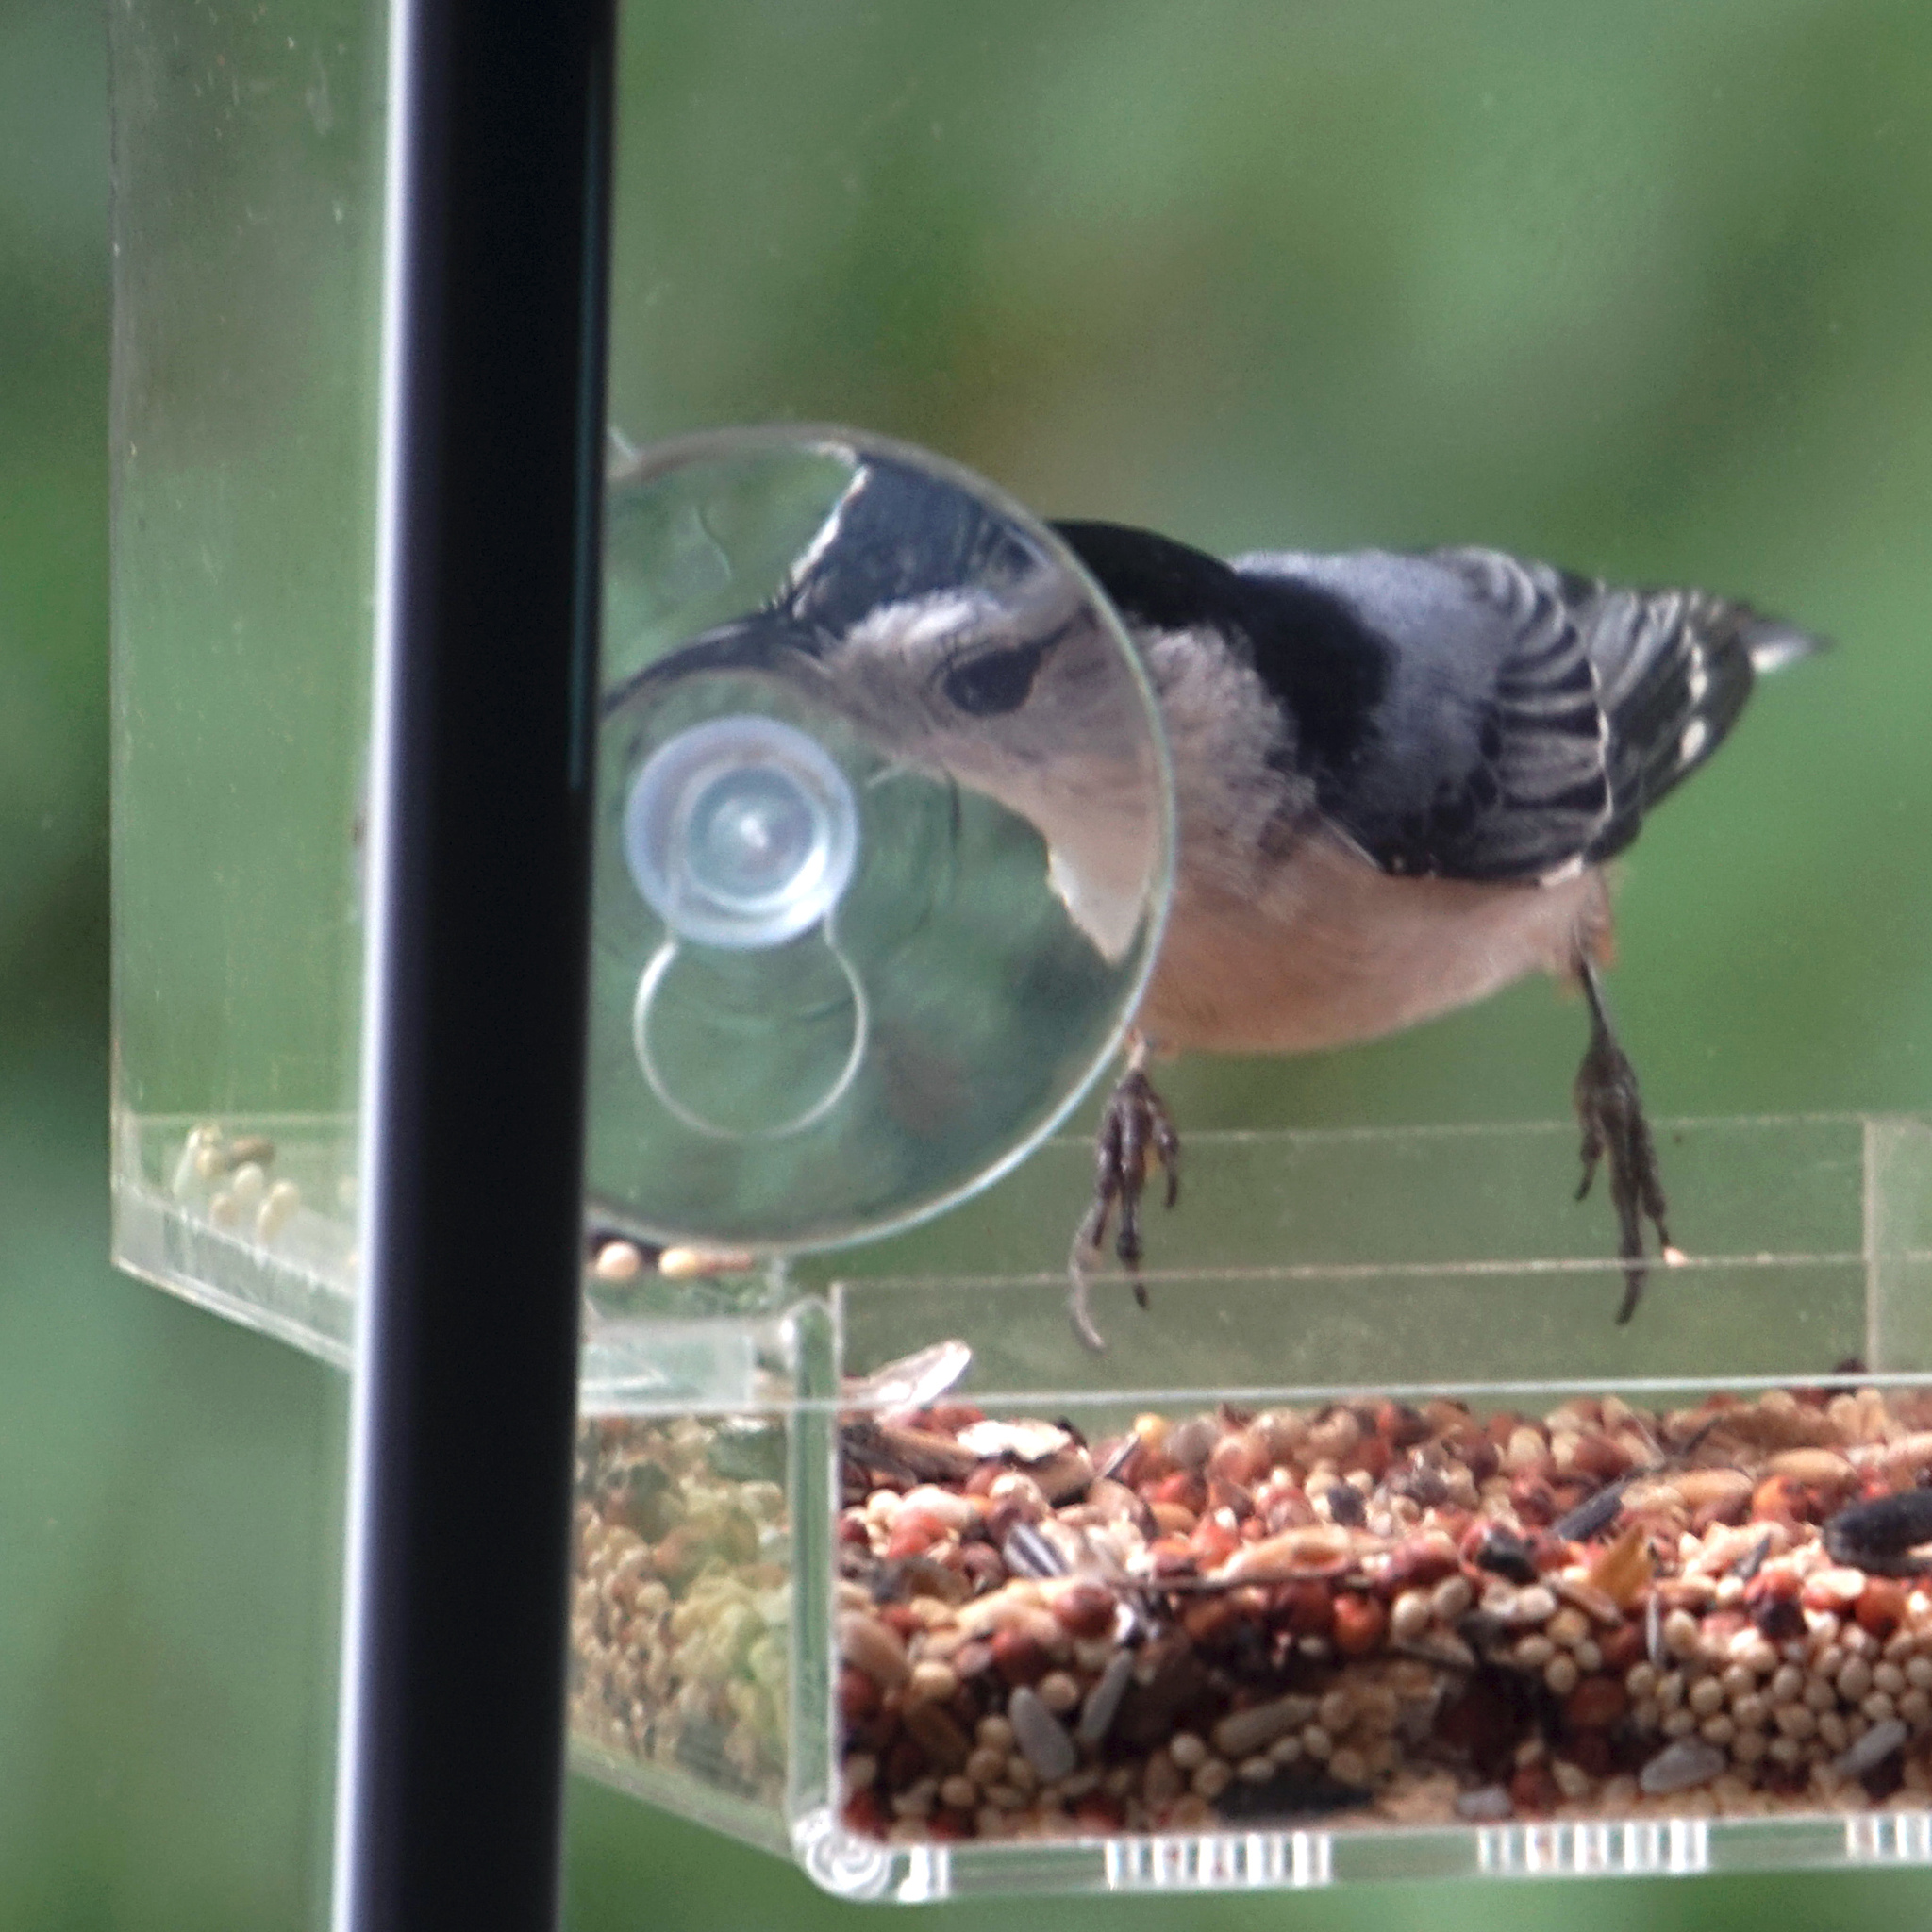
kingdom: Animalia
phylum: Chordata
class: Aves
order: Passeriformes
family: Sittidae
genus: Sitta
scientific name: Sitta carolinensis
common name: White-breasted nuthatch
